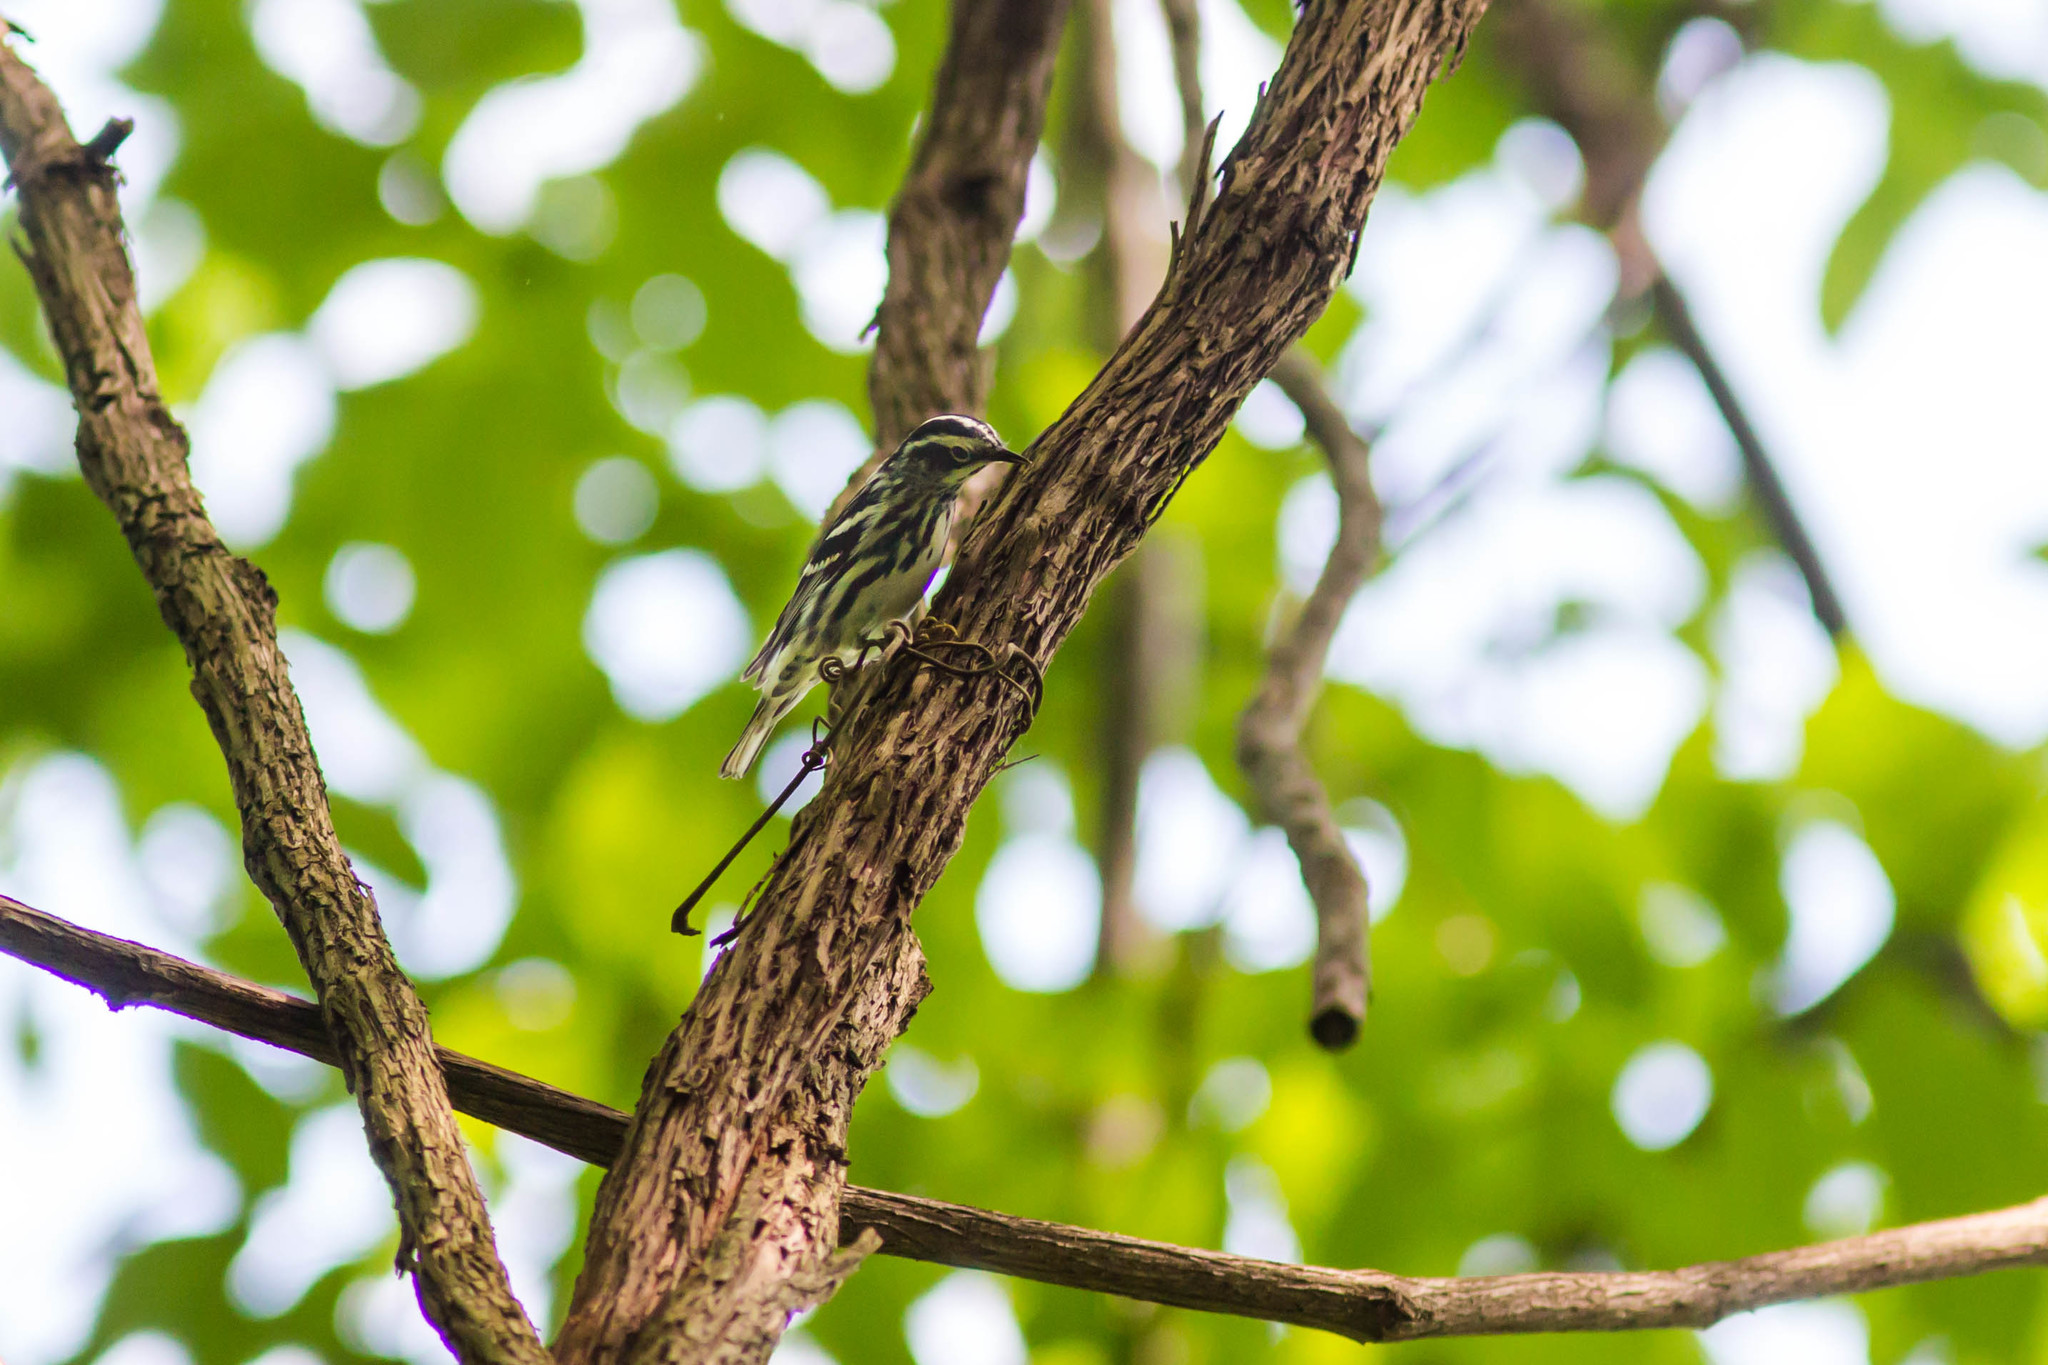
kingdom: Animalia
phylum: Chordata
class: Aves
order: Passeriformes
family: Parulidae
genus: Mniotilta
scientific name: Mniotilta varia
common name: Black-and-white warbler
